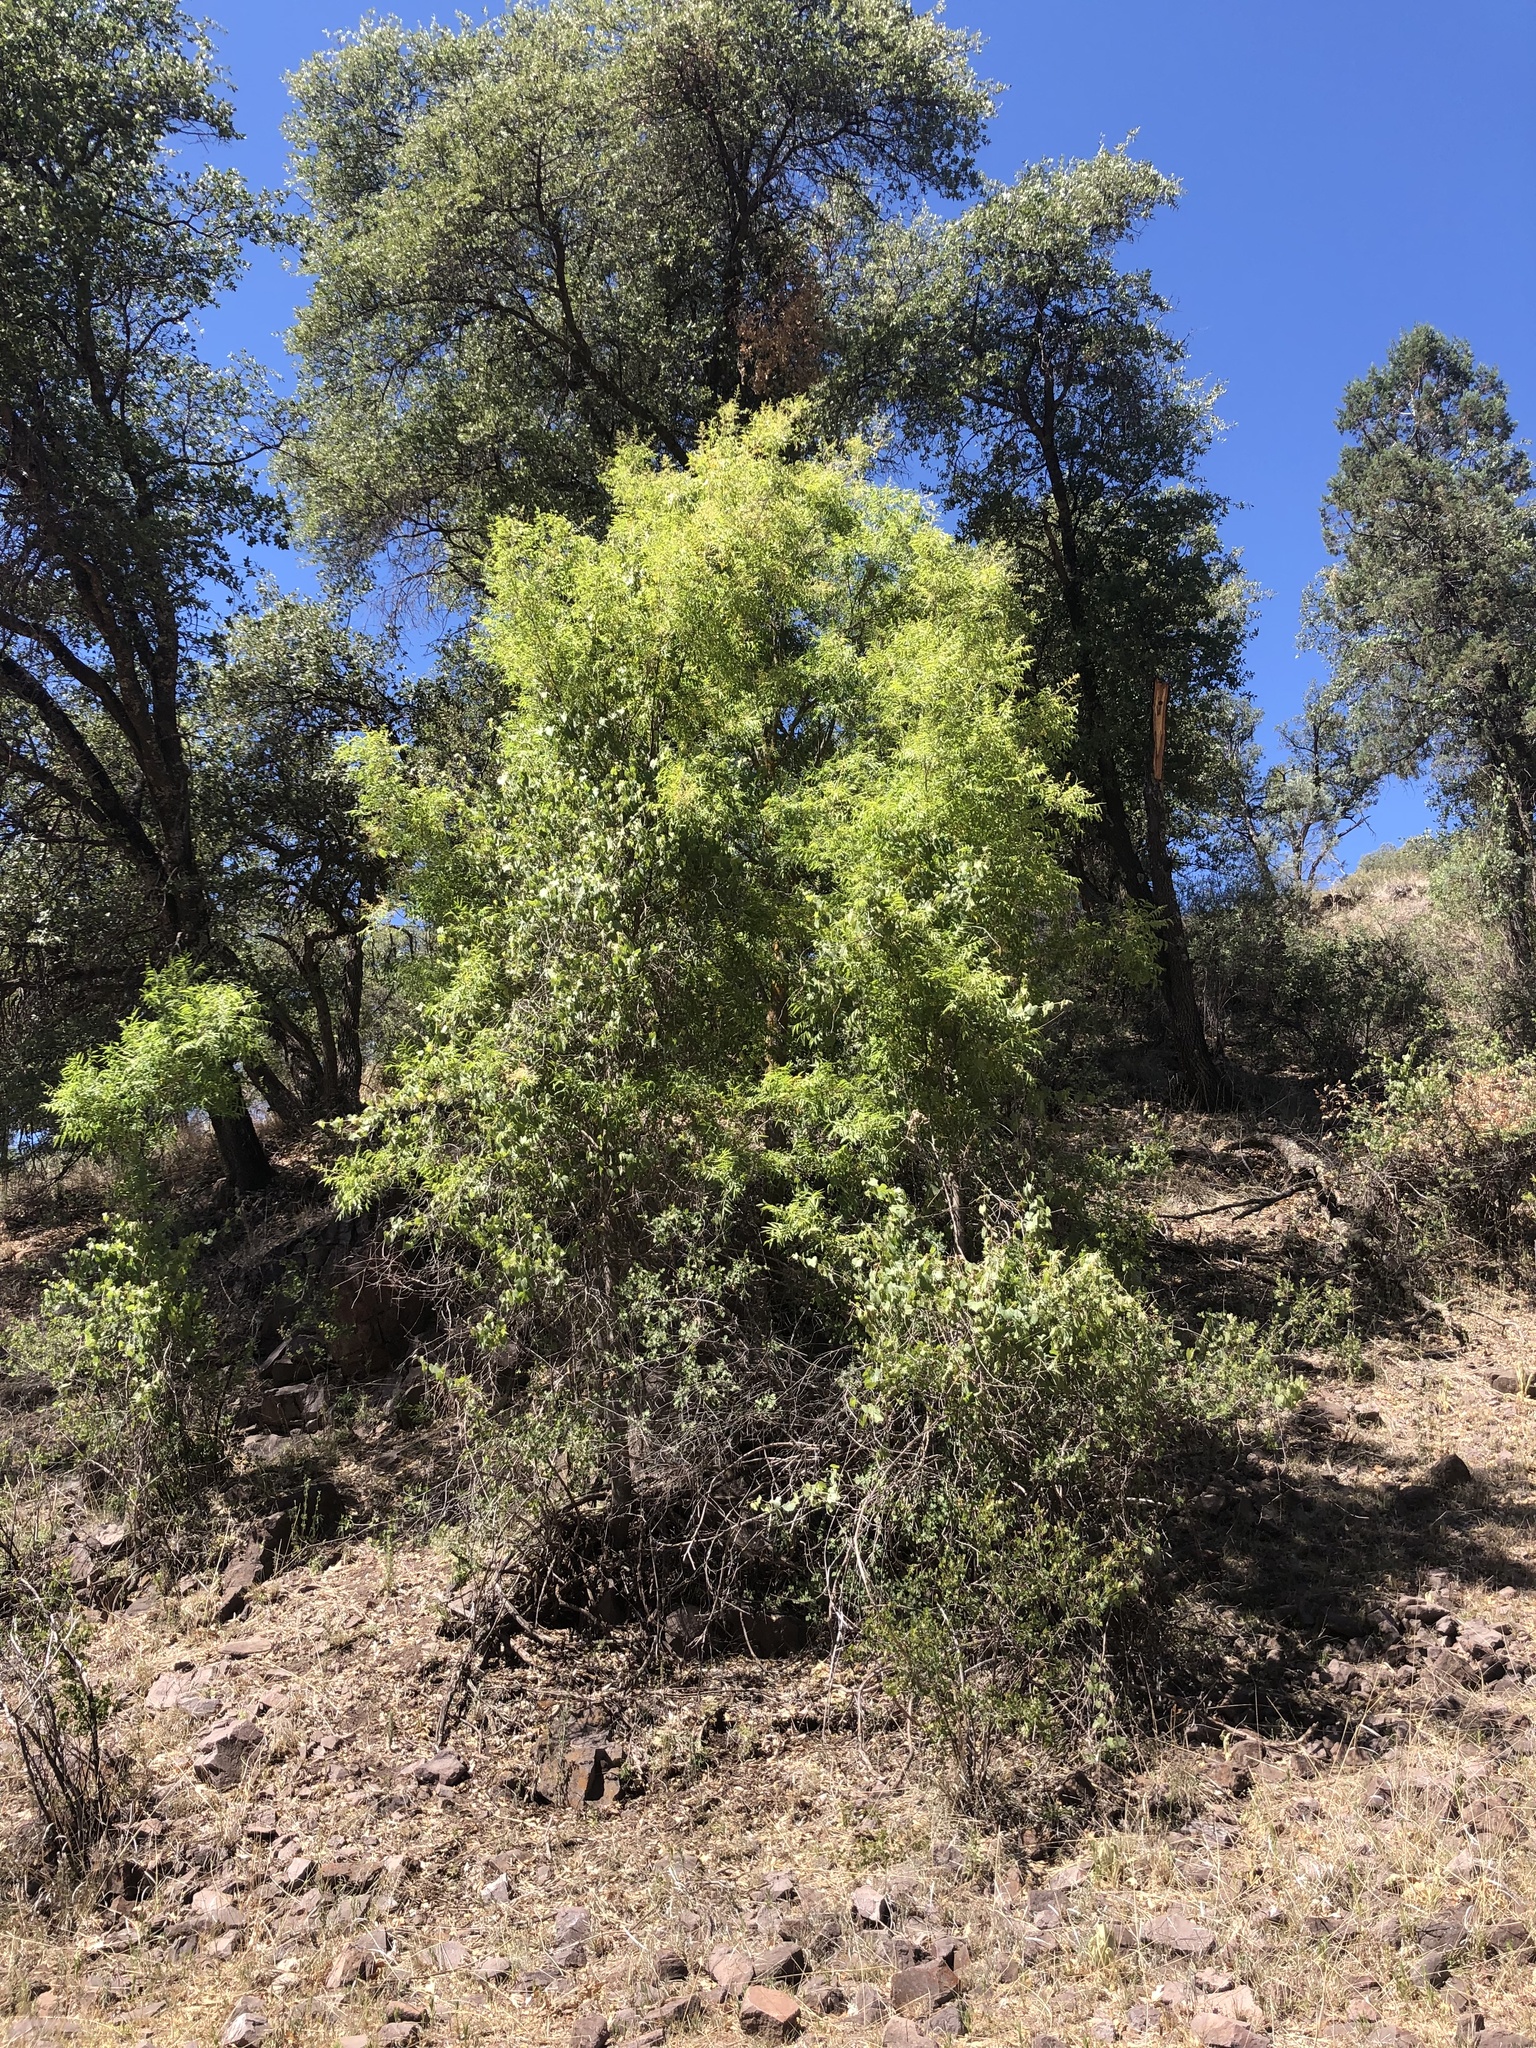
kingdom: Plantae
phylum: Tracheophyta
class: Magnoliopsida
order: Sapindales
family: Sapindaceae
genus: Sapindus
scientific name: Sapindus drummondii
